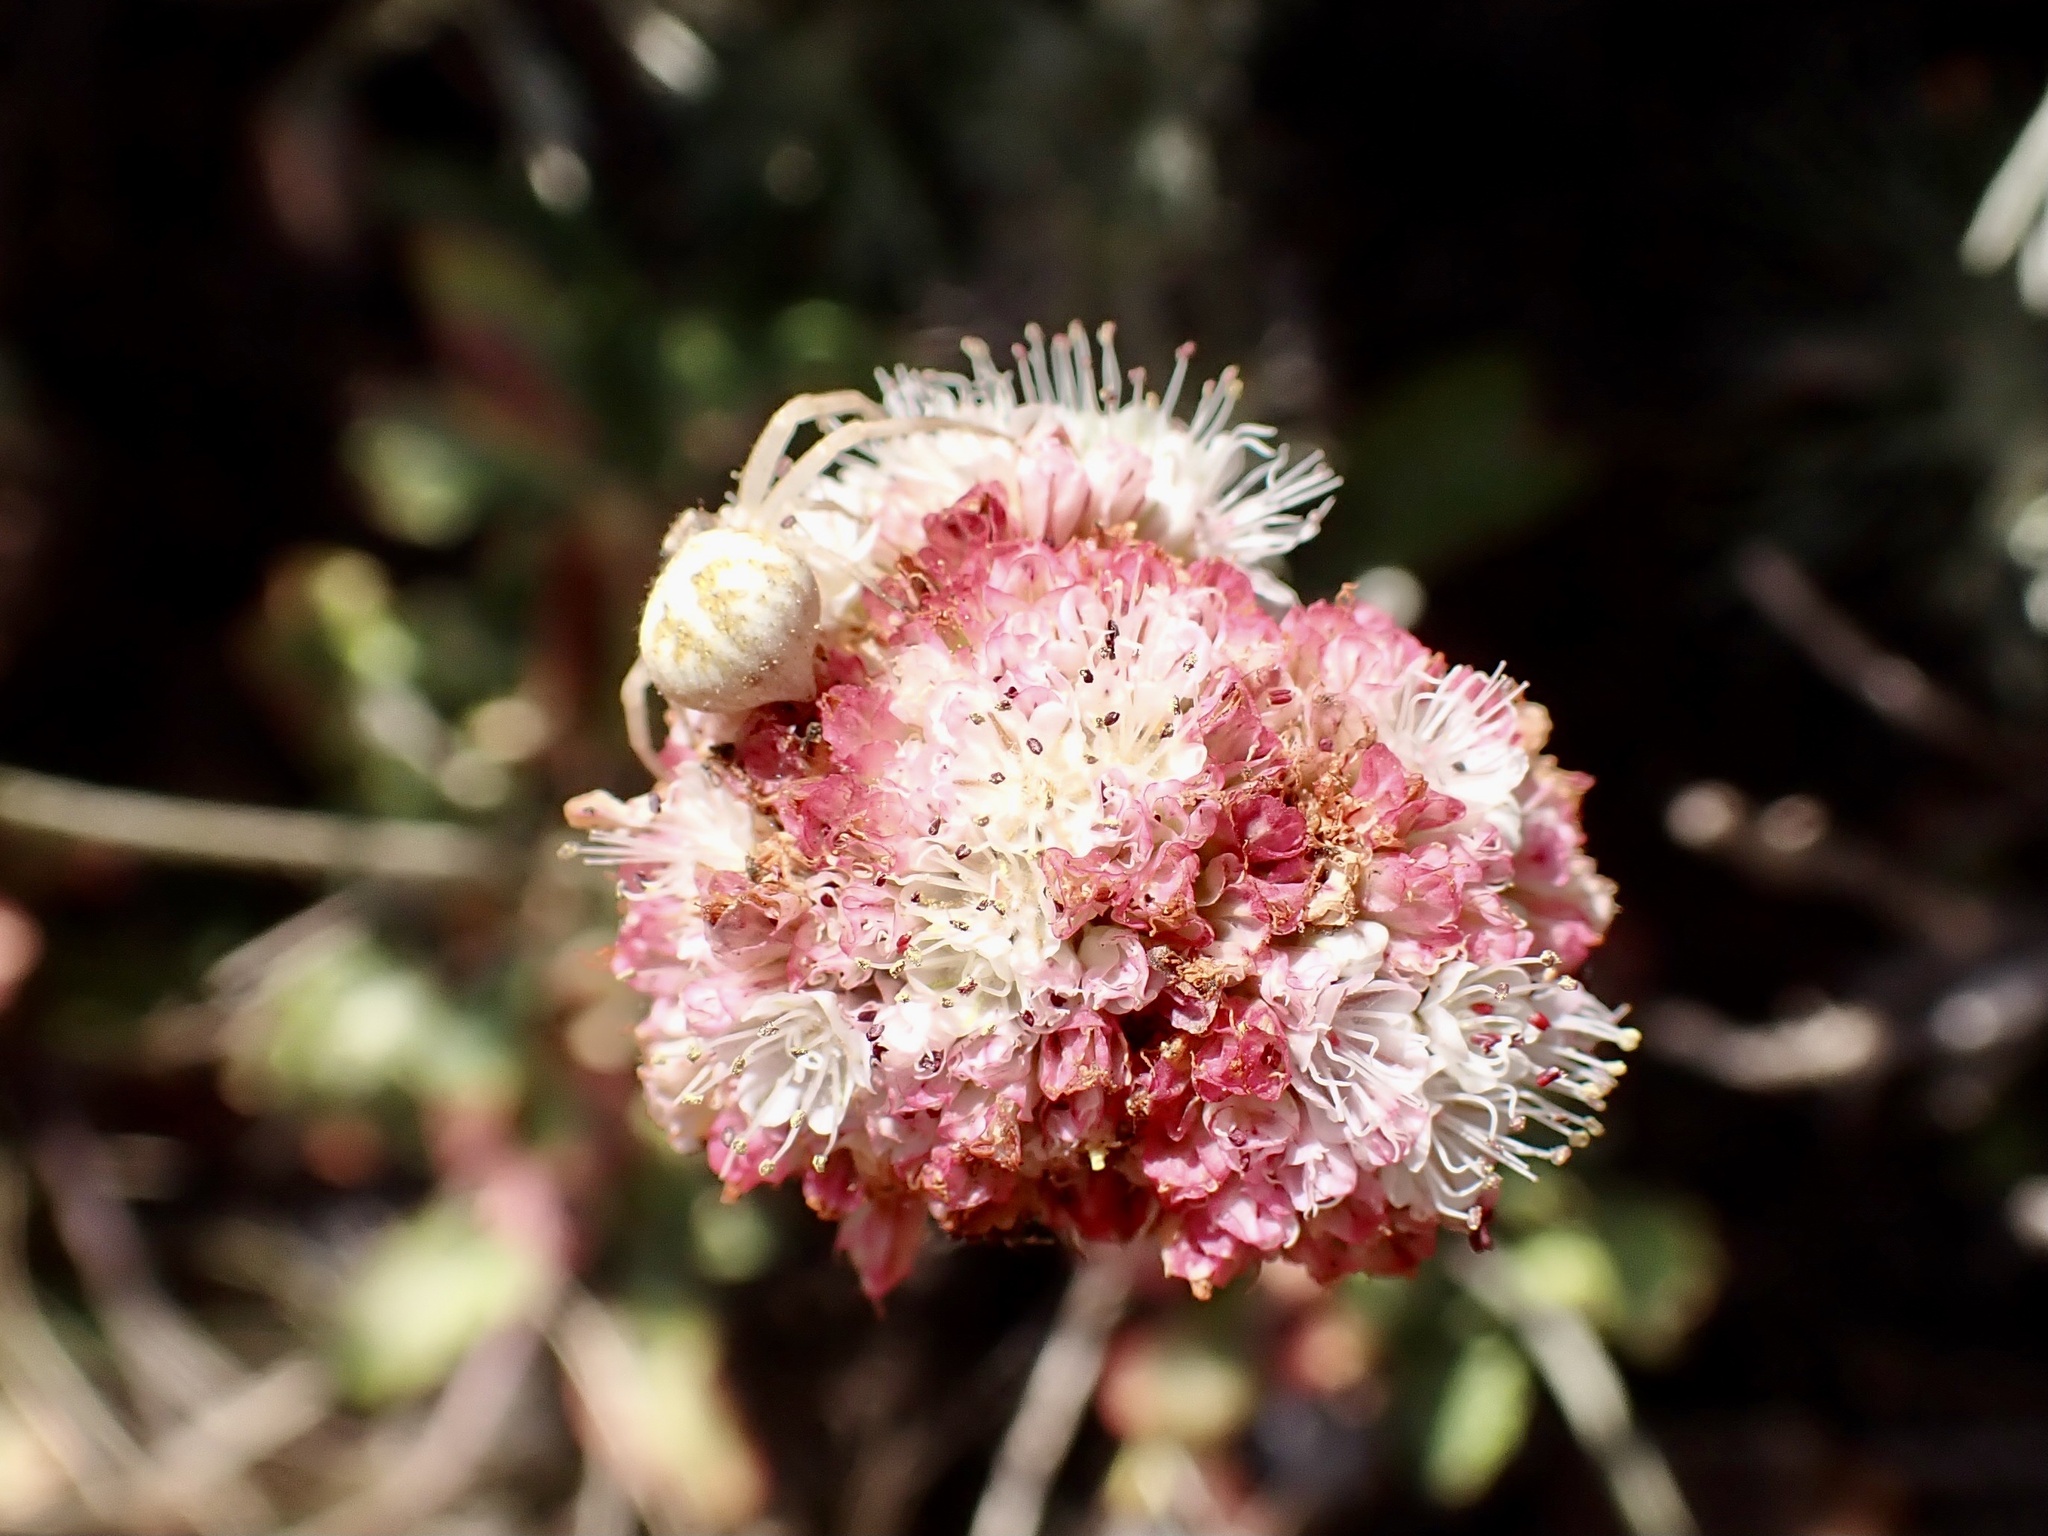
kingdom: Plantae
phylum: Tracheophyta
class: Magnoliopsida
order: Caryophyllales
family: Polygonaceae
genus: Eriogonum
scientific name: Eriogonum latifolium
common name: Seaside wild buckwheat
